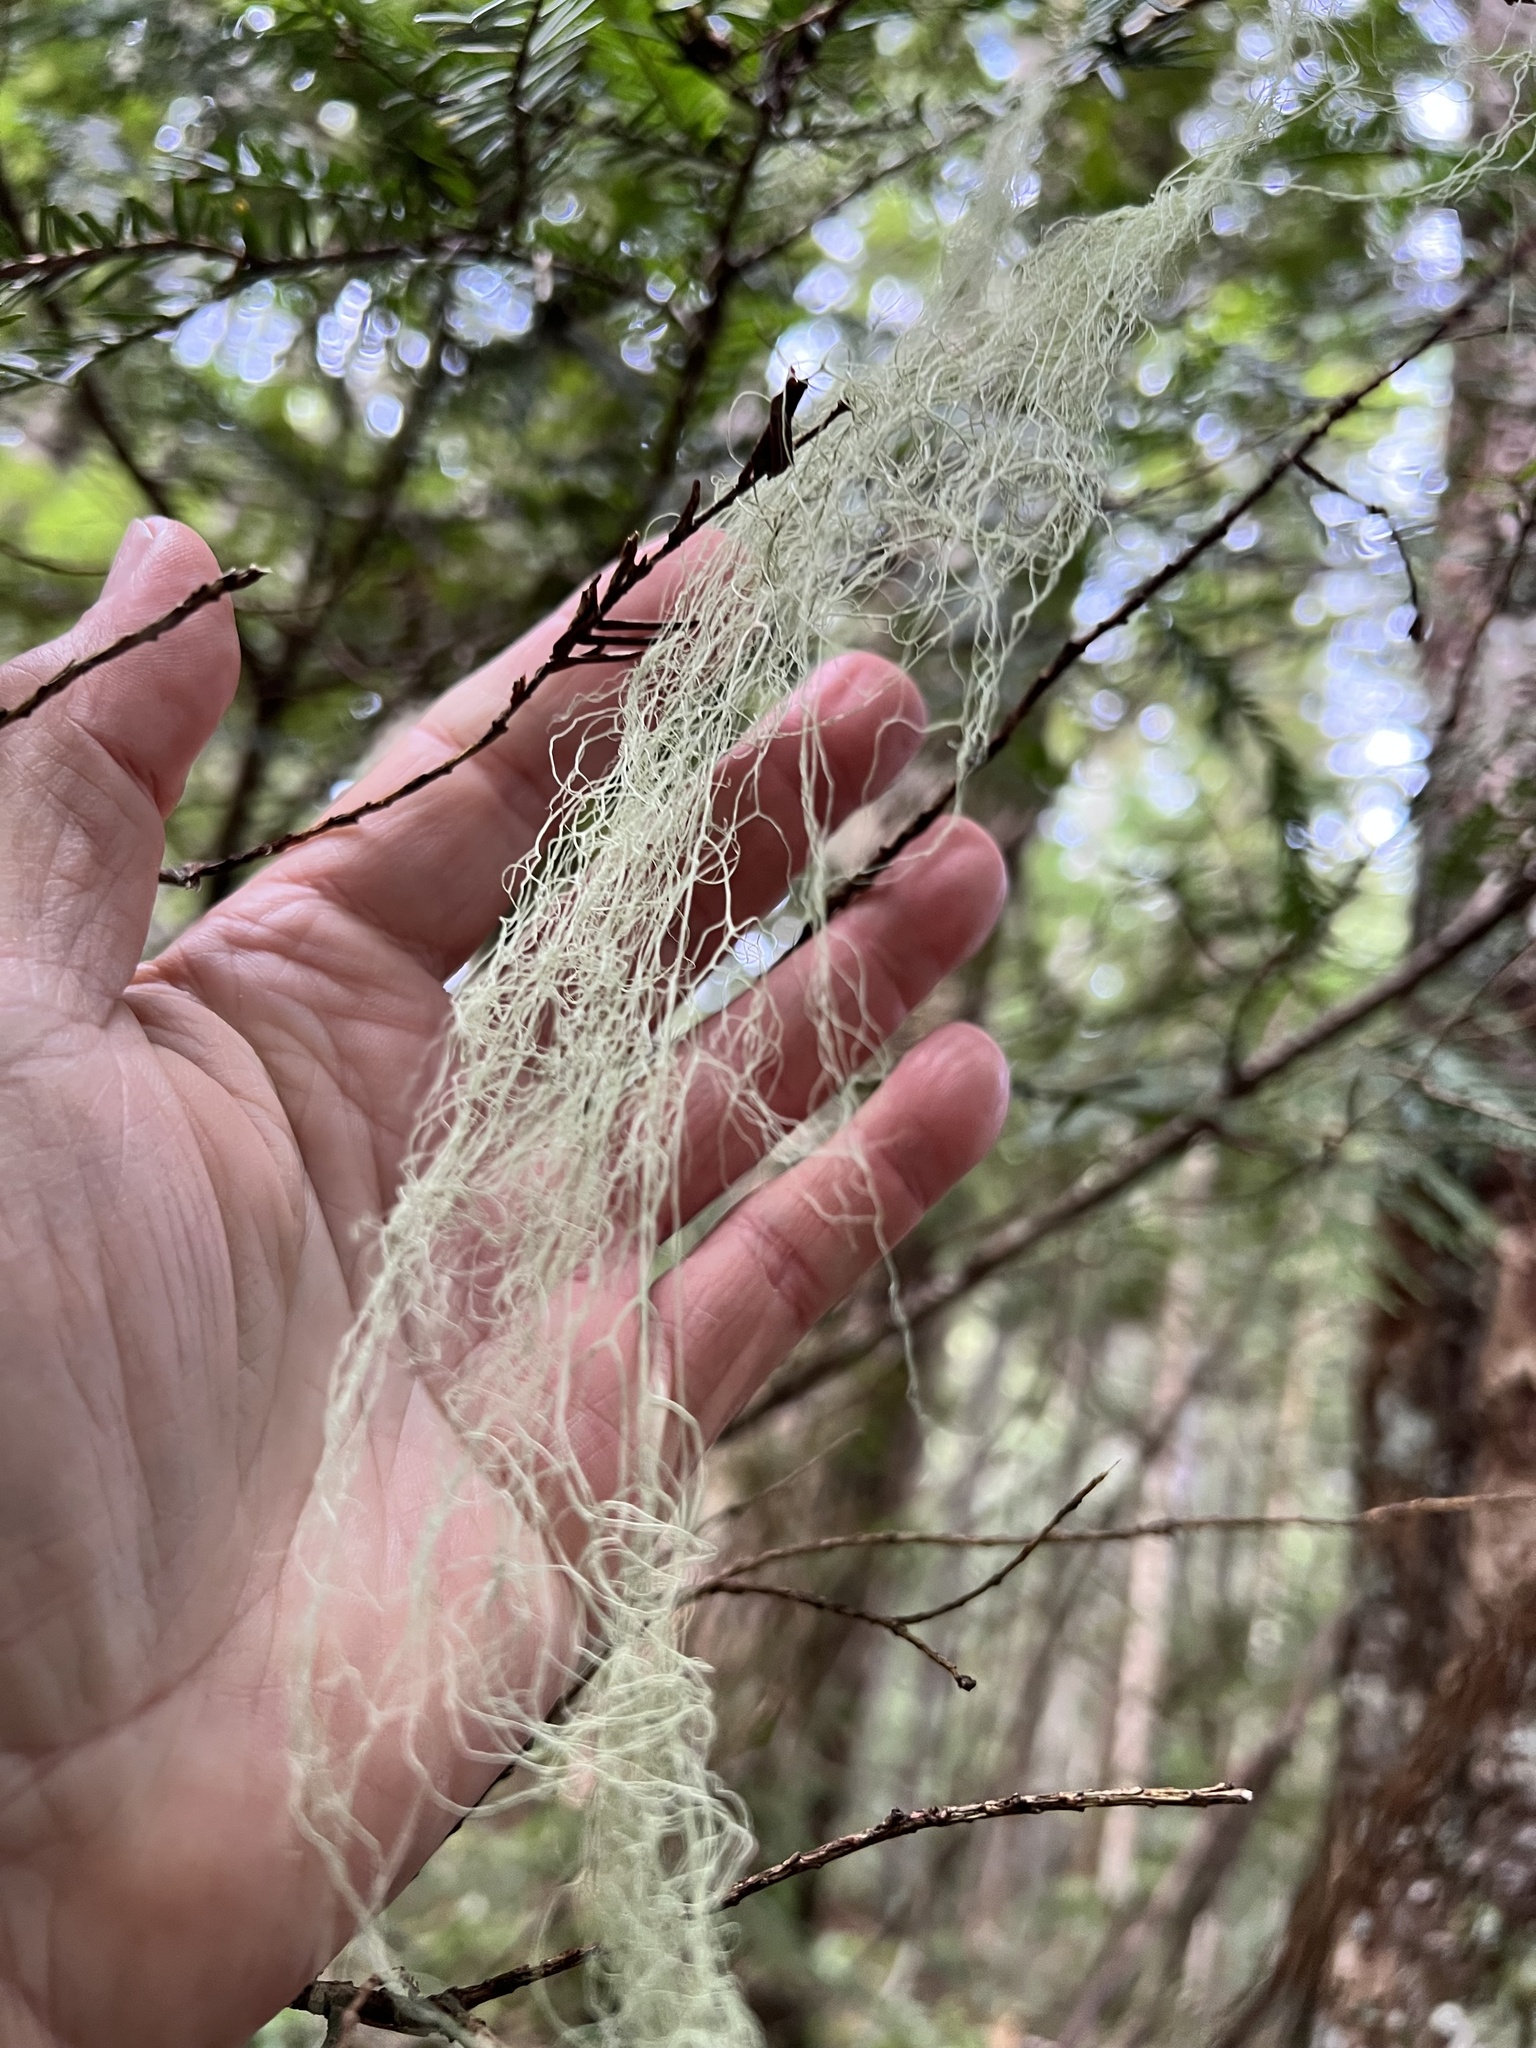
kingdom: Fungi
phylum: Ascomycota
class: Lecanoromycetes
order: Lecanorales
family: Ramalinaceae
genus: Ramalina
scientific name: Ramalina menziesii
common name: Lace lichen
